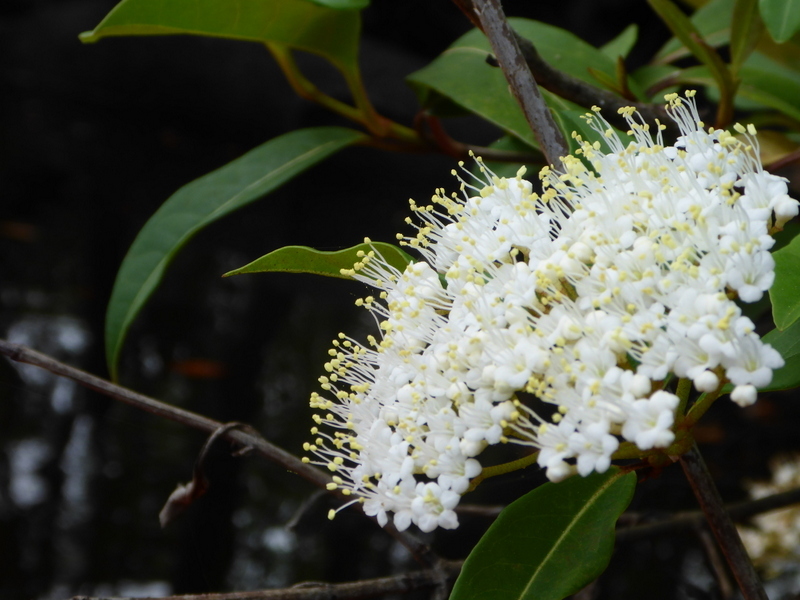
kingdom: Plantae
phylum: Tracheophyta
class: Magnoliopsida
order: Dipsacales
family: Viburnaceae
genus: Viburnum
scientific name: Viburnum nudum
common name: Possum haw
